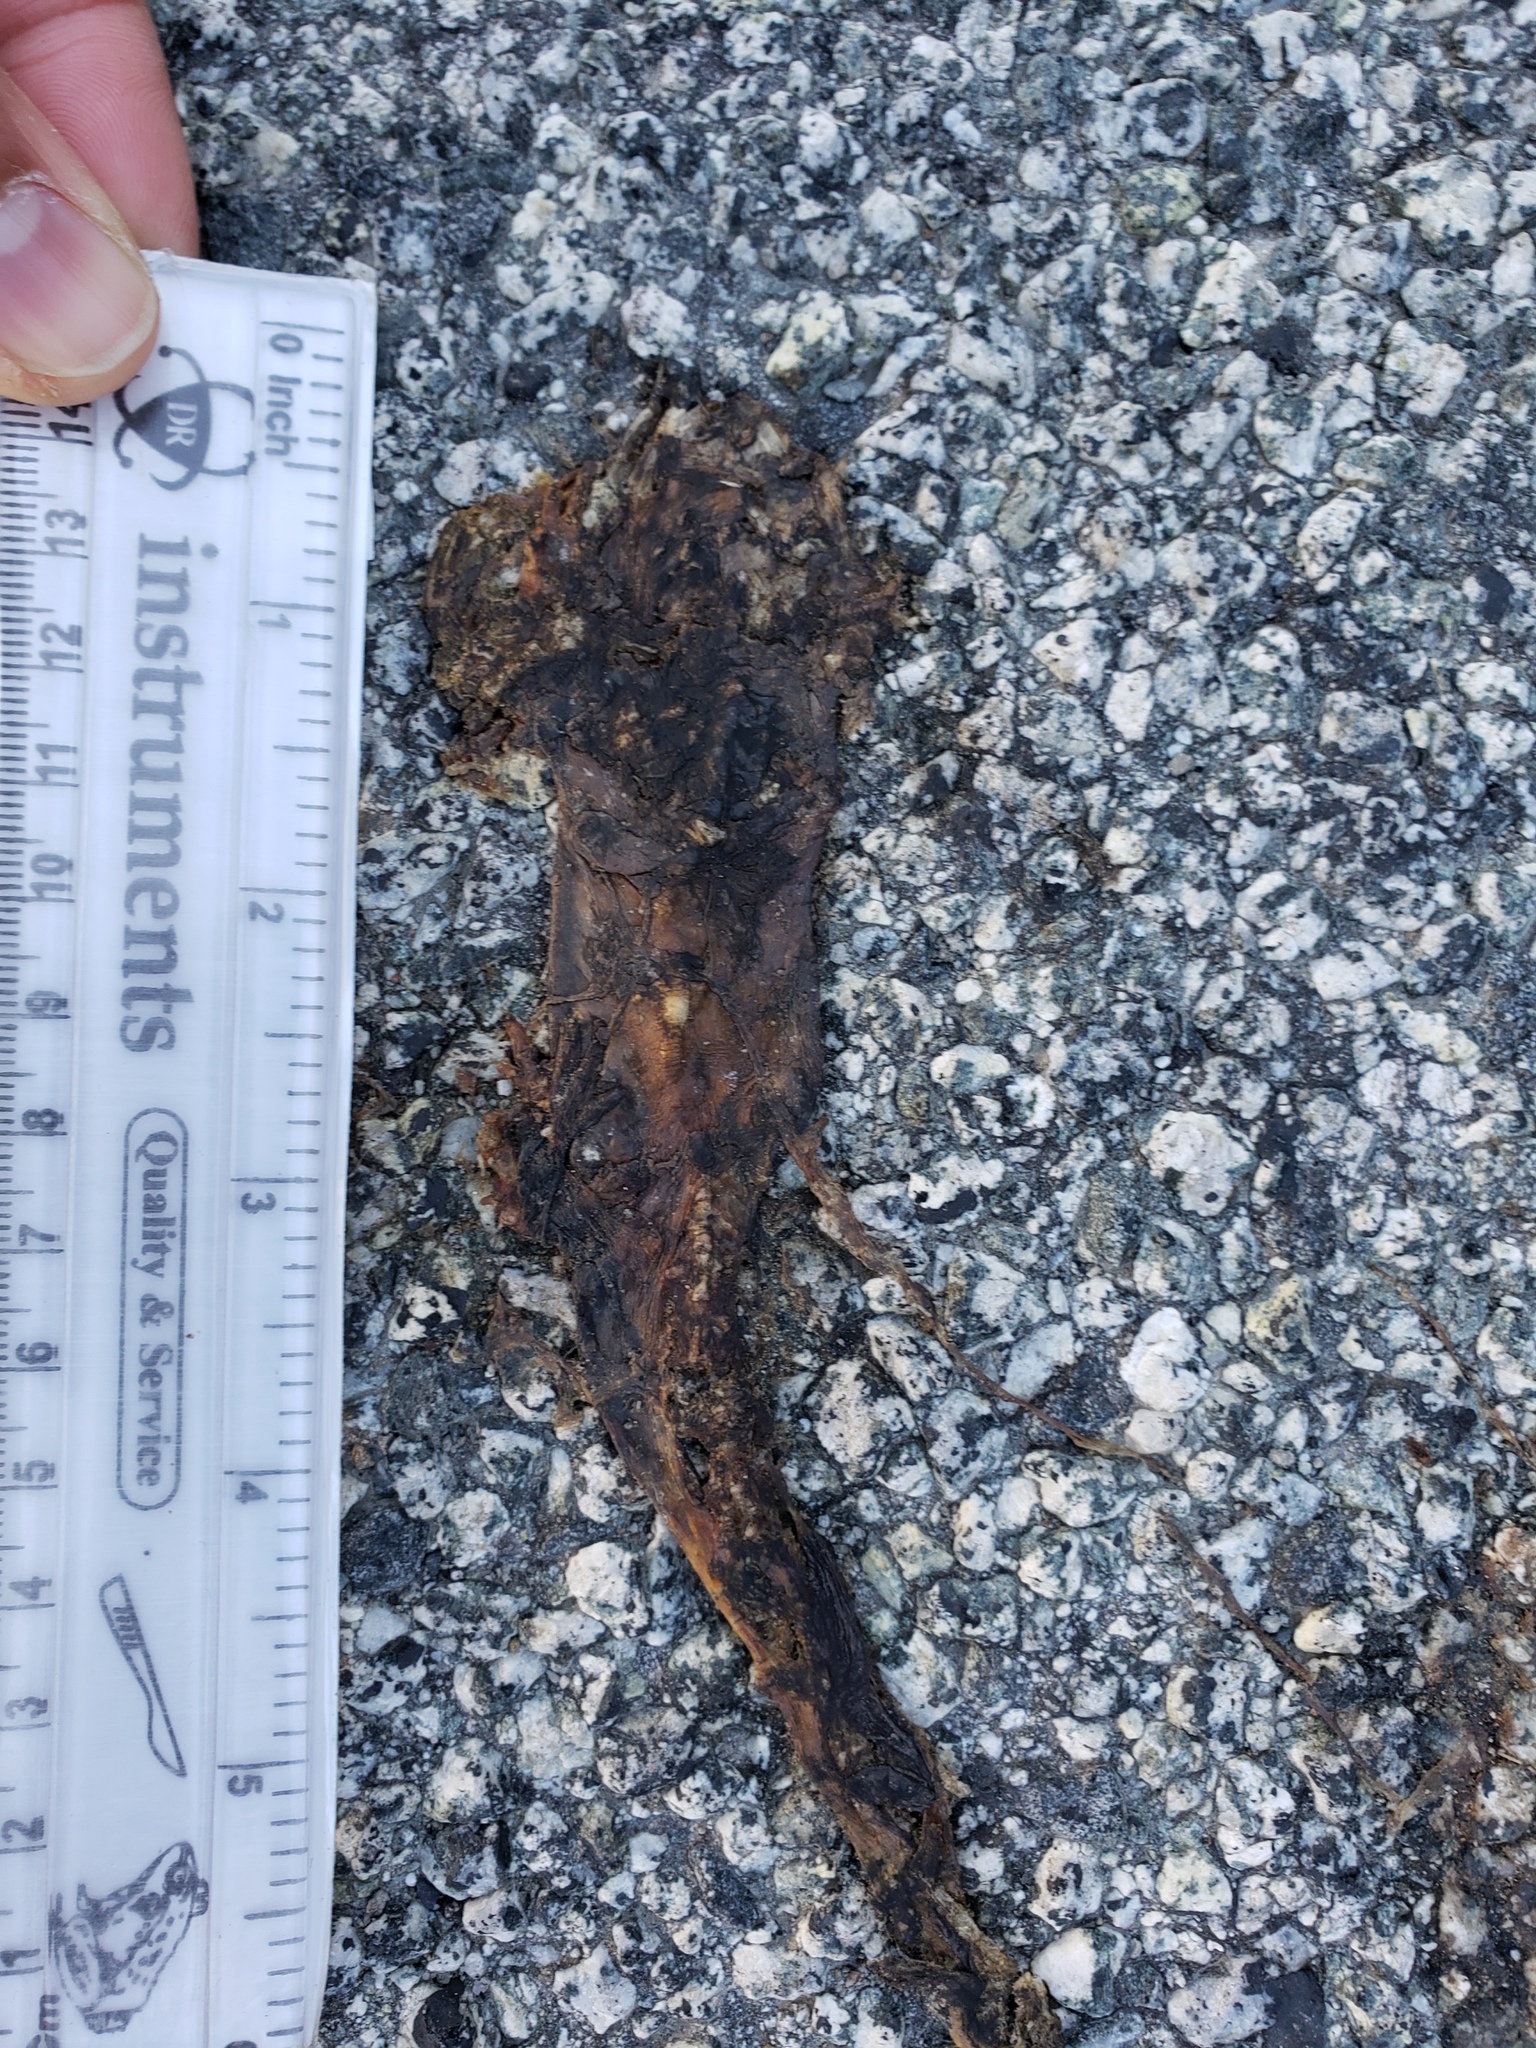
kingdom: Animalia
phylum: Chordata
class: Amphibia
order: Caudata
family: Salamandridae
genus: Taricha
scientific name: Taricha
